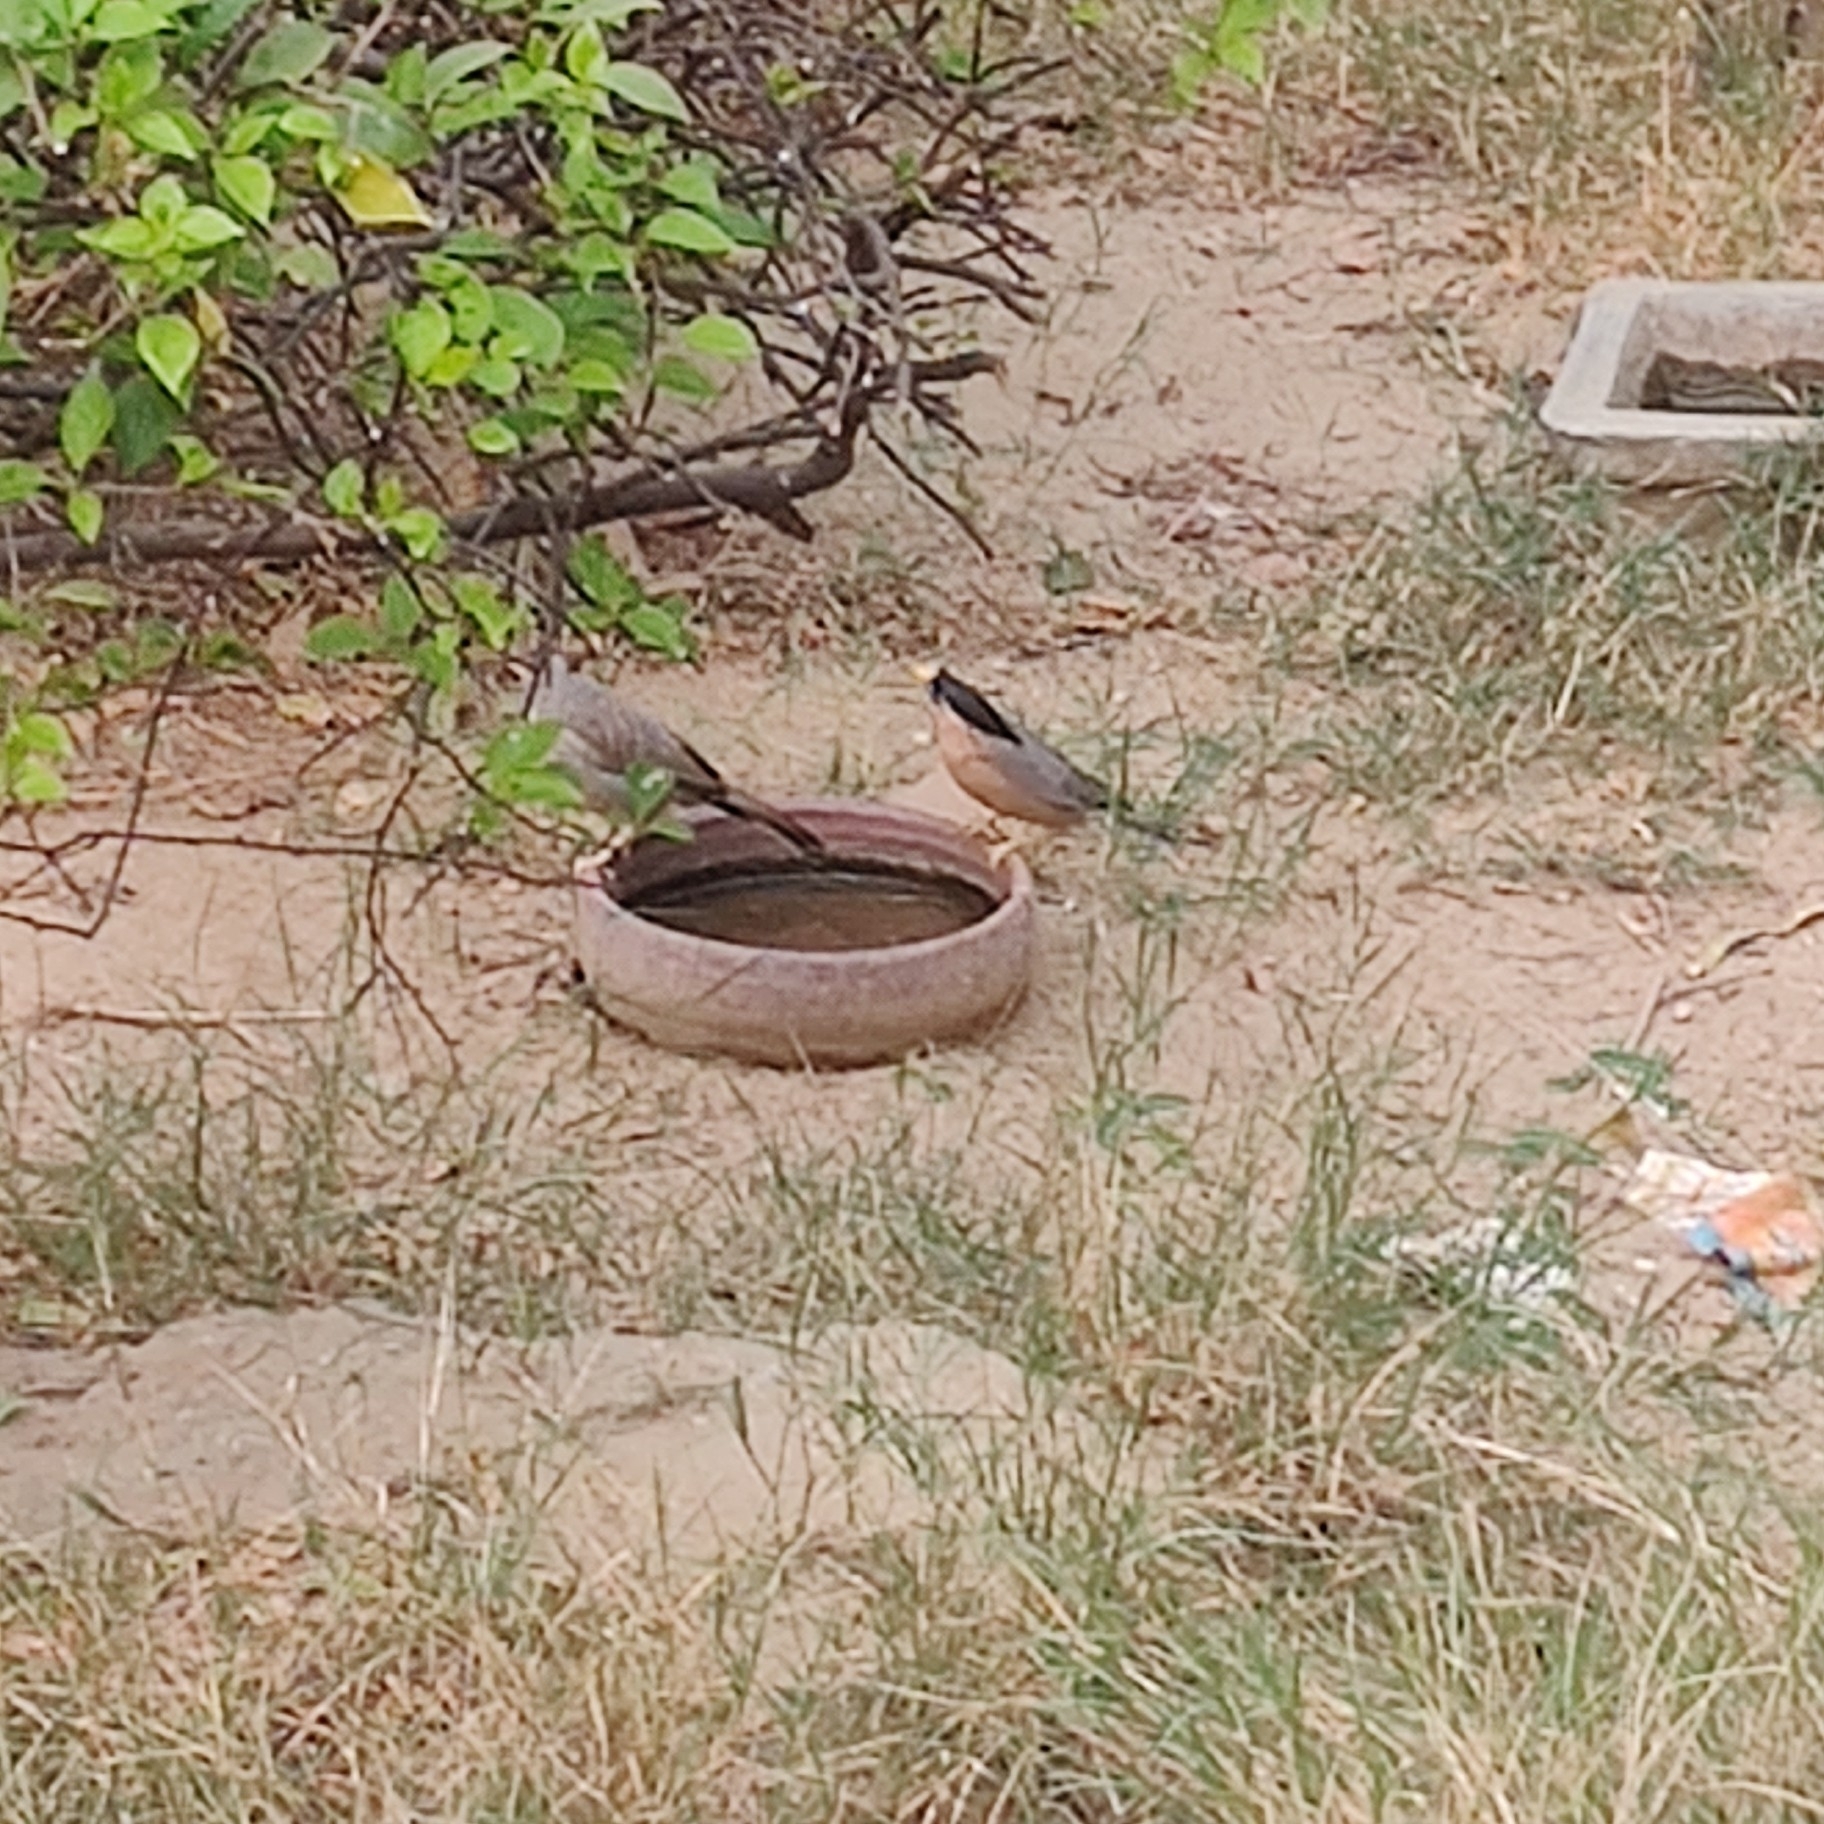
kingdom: Animalia
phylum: Chordata
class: Aves
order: Passeriformes
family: Sturnidae
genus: Sturnia
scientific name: Sturnia pagodarum
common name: Brahminy starling
